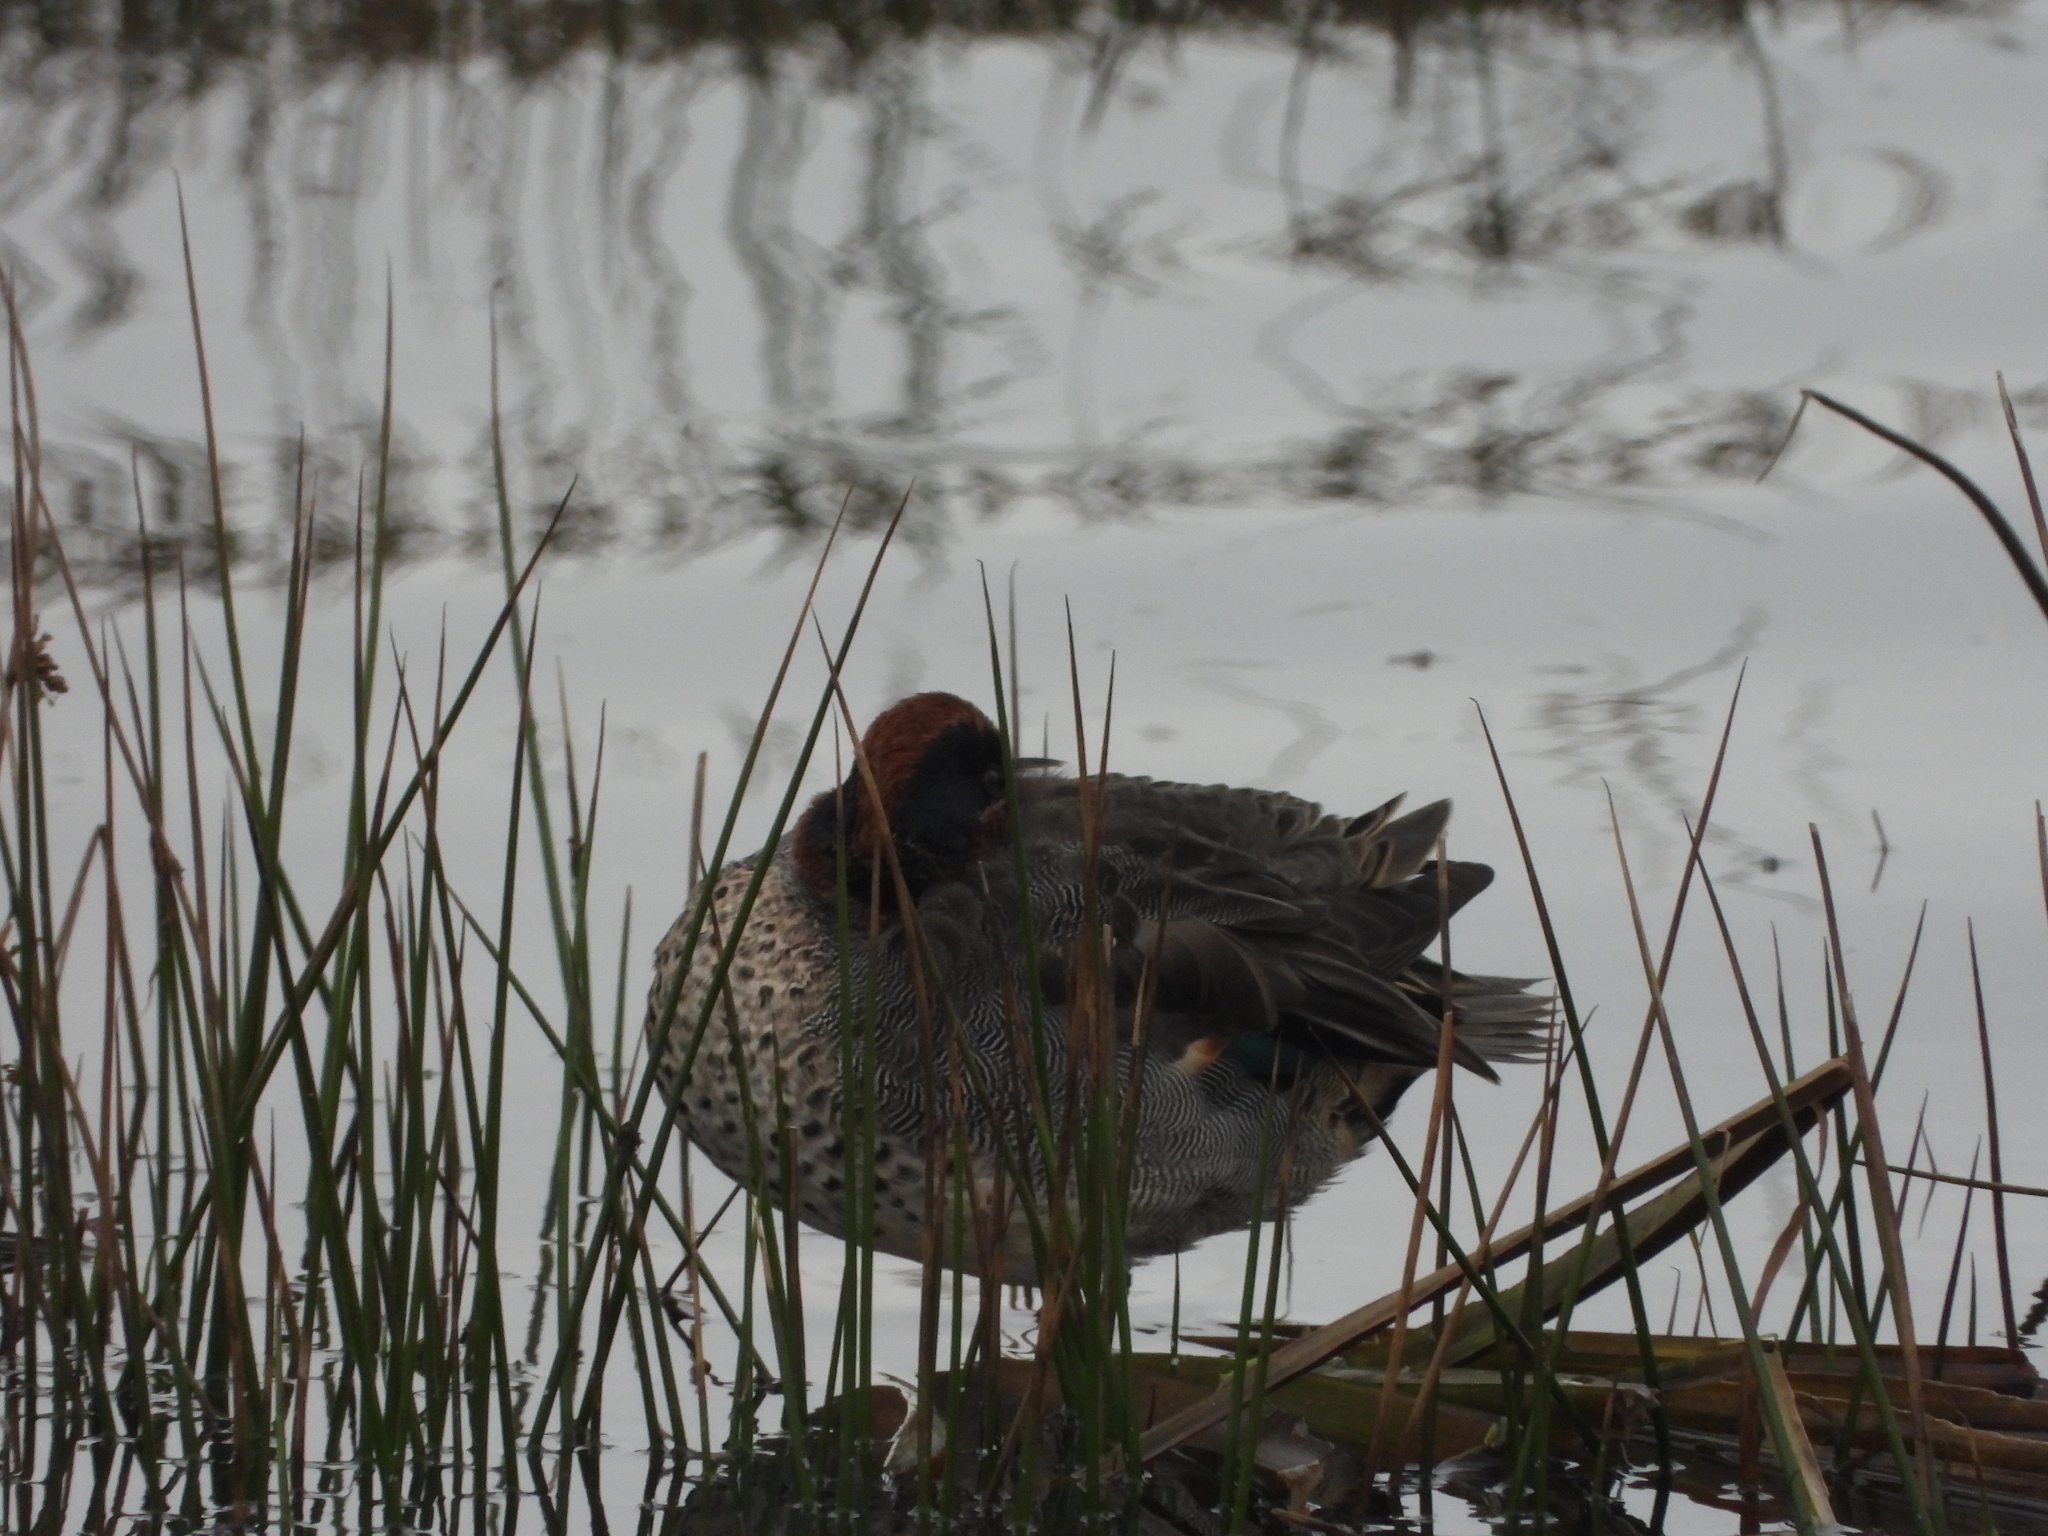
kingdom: Animalia
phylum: Chordata
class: Aves
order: Anseriformes
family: Anatidae
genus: Anas
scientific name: Anas crecca
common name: Eurasian teal
